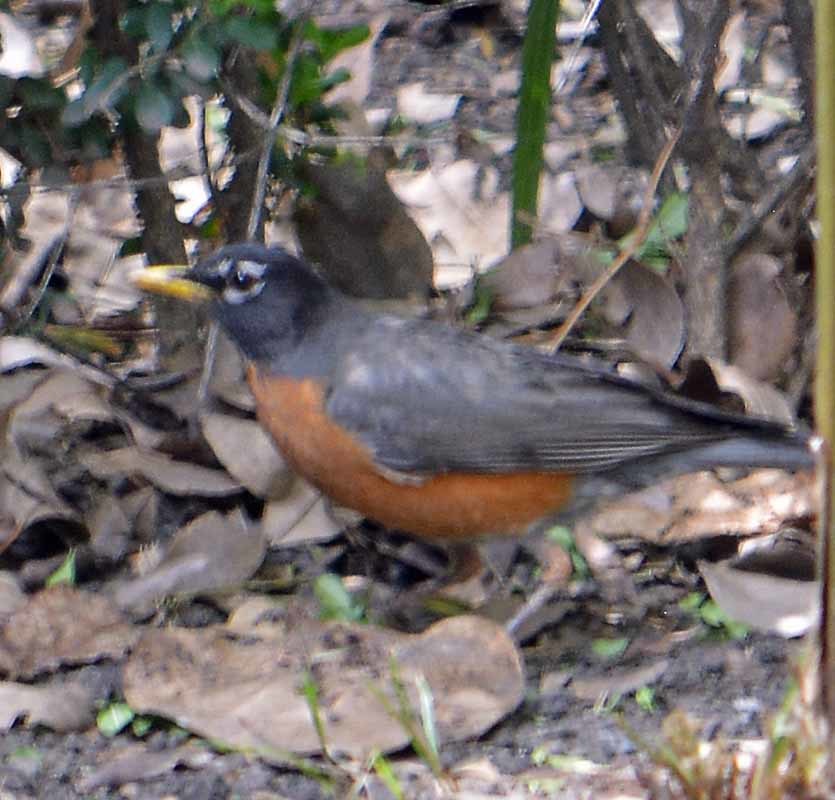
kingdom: Animalia
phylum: Chordata
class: Aves
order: Passeriformes
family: Turdidae
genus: Turdus
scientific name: Turdus migratorius
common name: American robin
